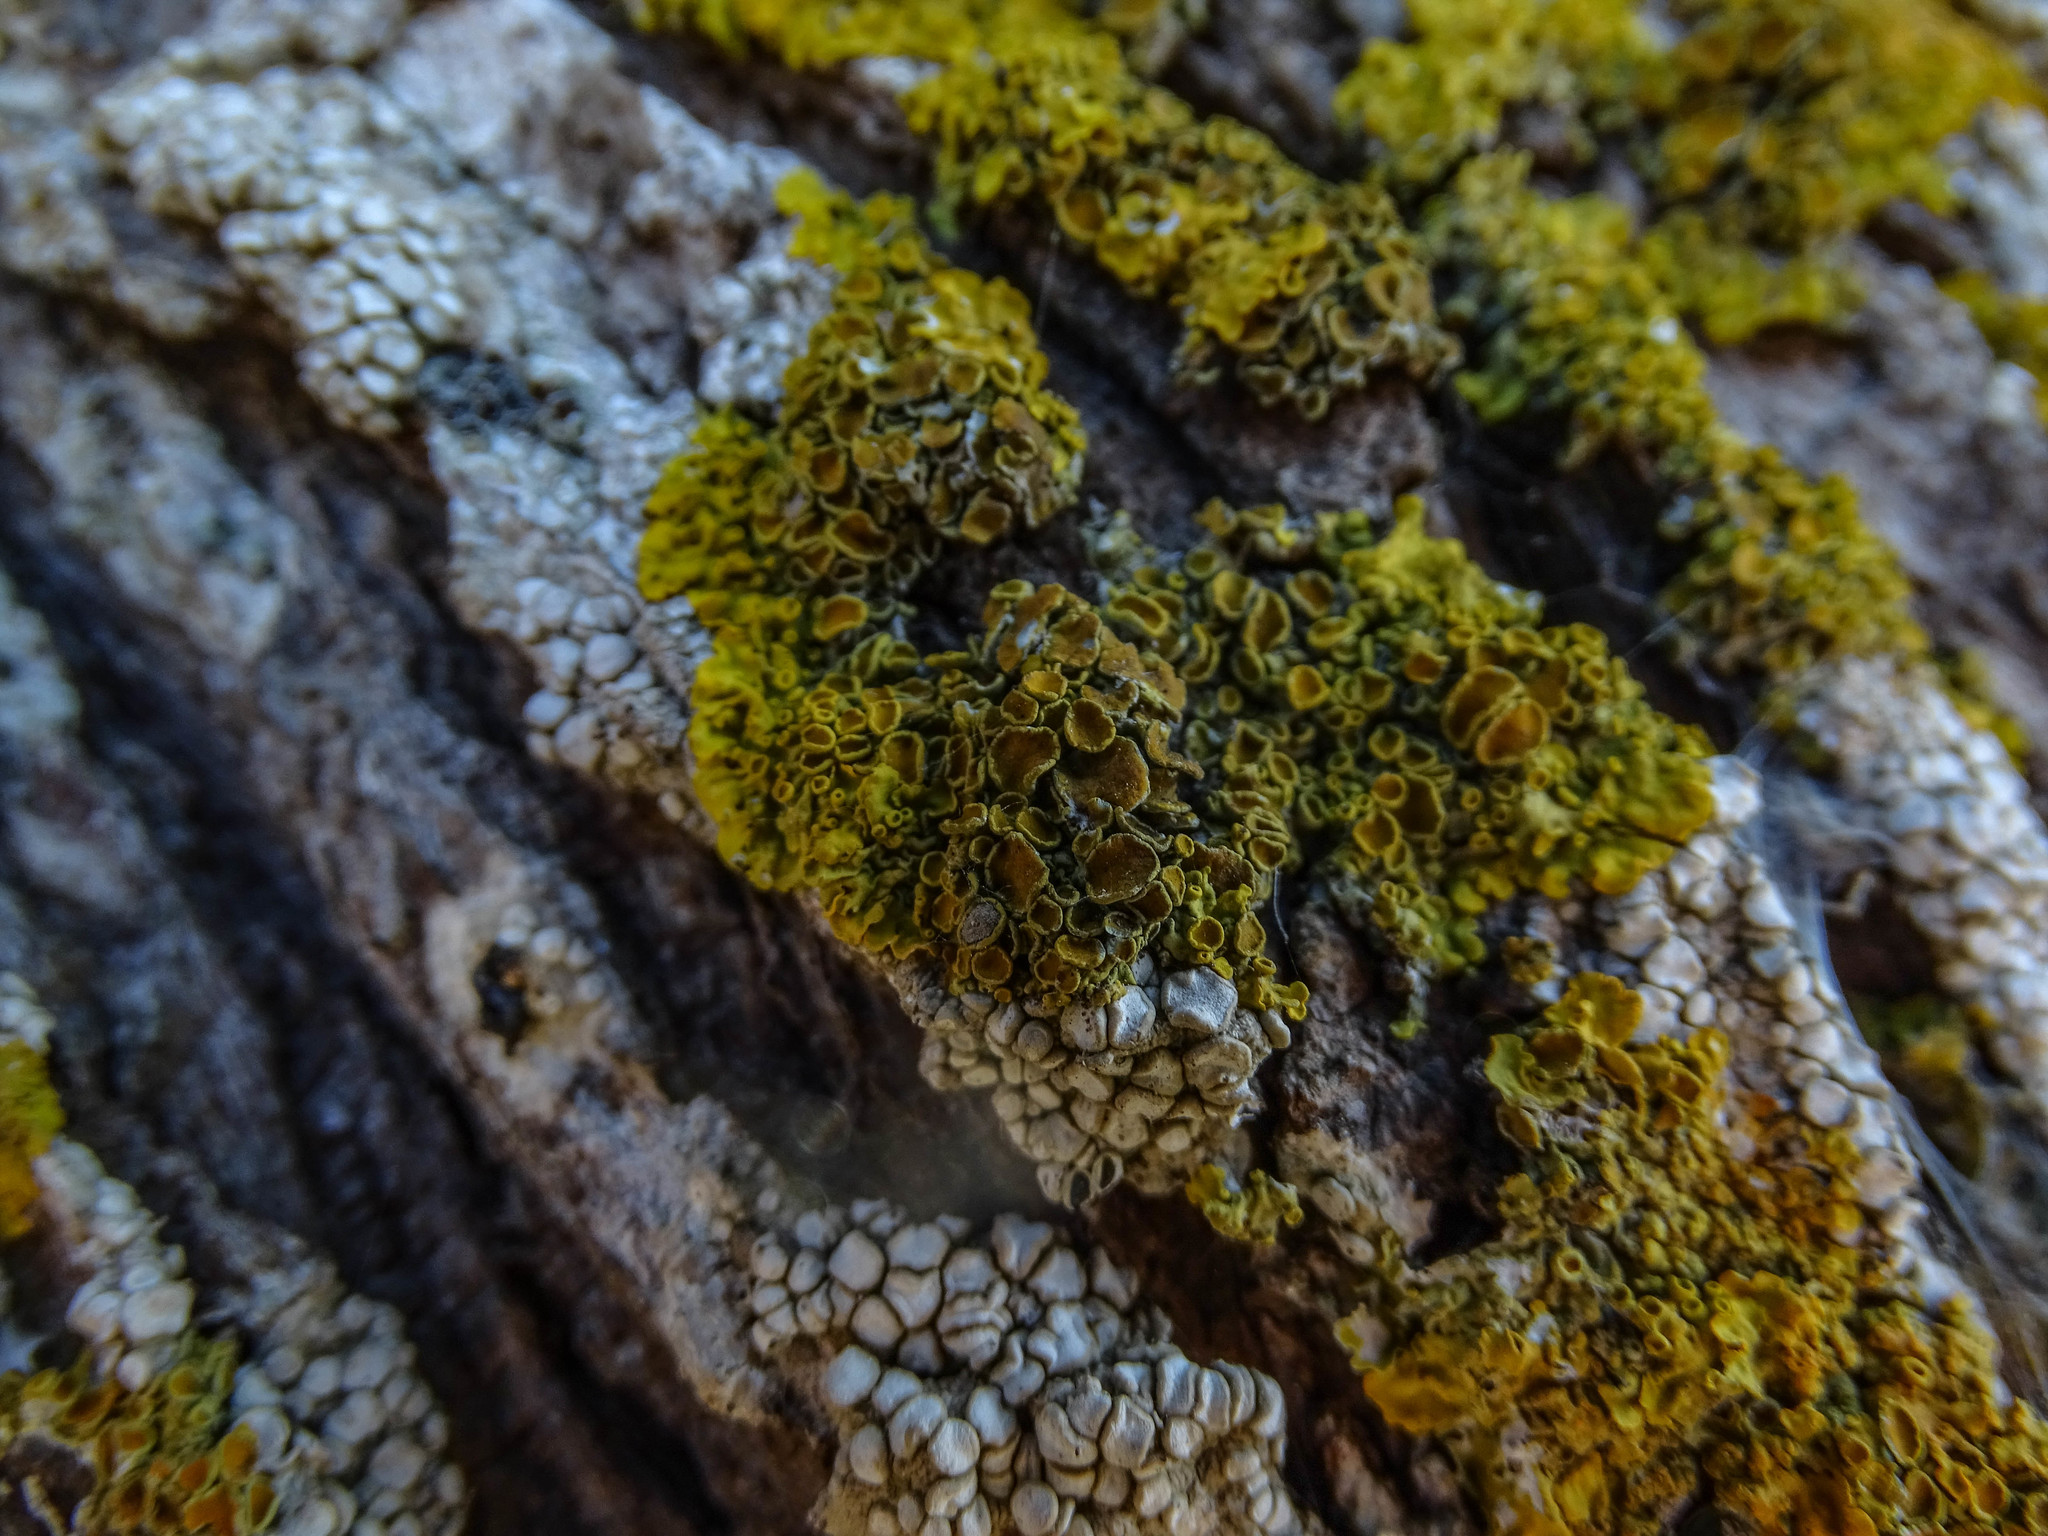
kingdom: Fungi
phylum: Ascomycota
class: Lecanoromycetes
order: Teloschistales
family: Teloschistaceae
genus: Xanthoria
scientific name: Xanthoria parietina
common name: Common orange lichen
